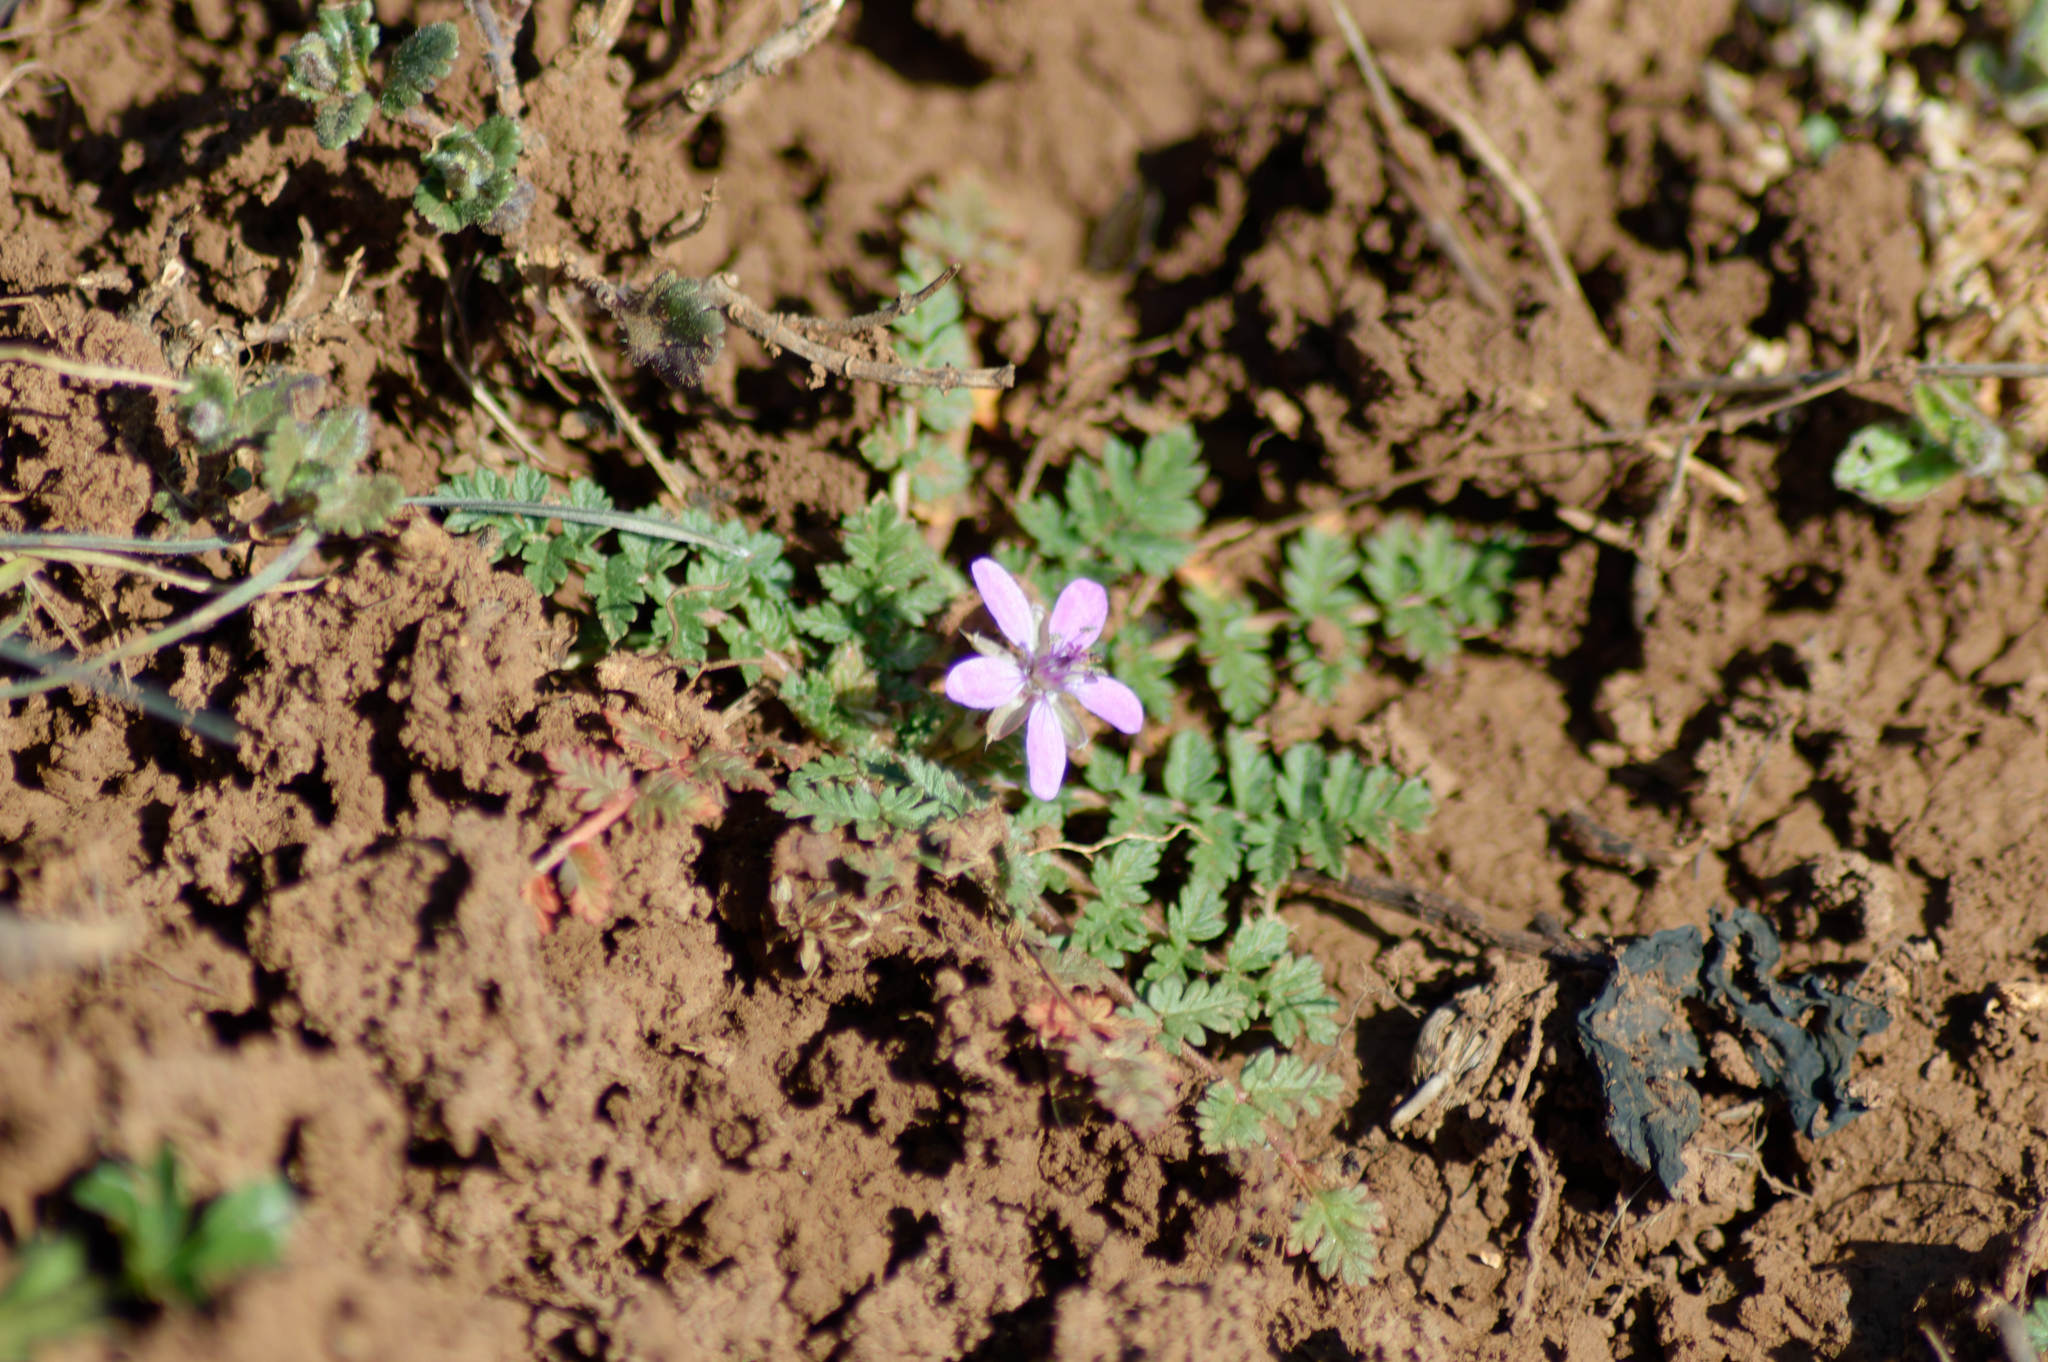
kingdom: Plantae
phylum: Tracheophyta
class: Magnoliopsida
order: Geraniales
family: Geraniaceae
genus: Erodium
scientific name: Erodium cicutarium
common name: Common stork's-bill
